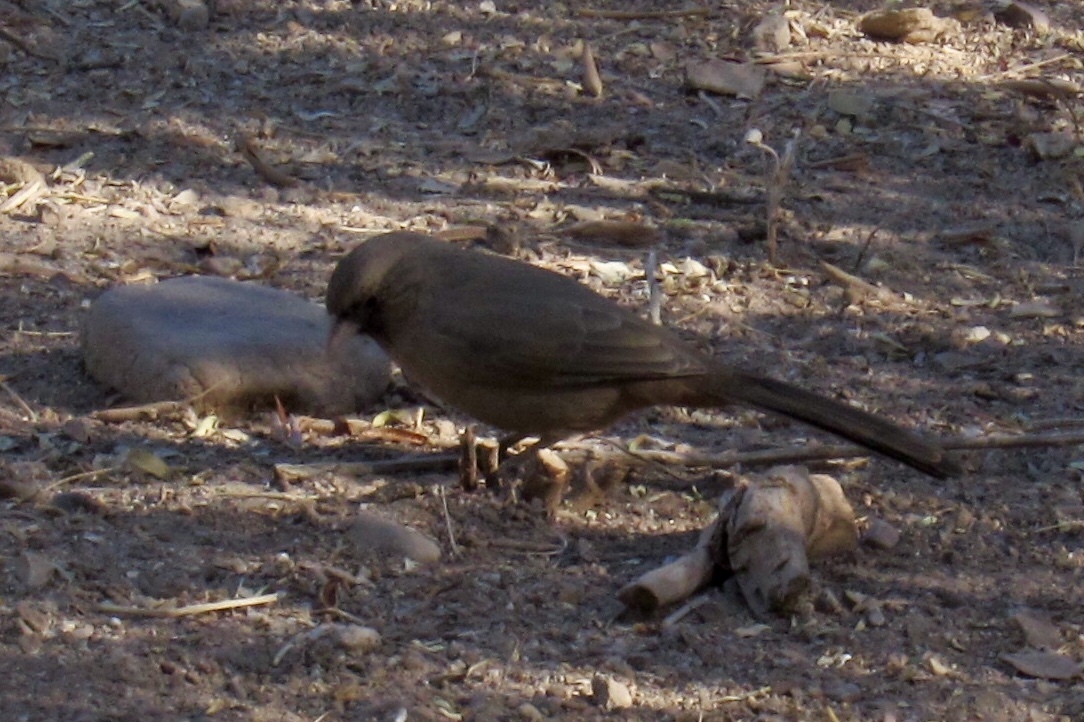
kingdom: Animalia
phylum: Chordata
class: Aves
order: Passeriformes
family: Passerellidae
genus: Melozone
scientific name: Melozone aberti
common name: Abert's towhee
